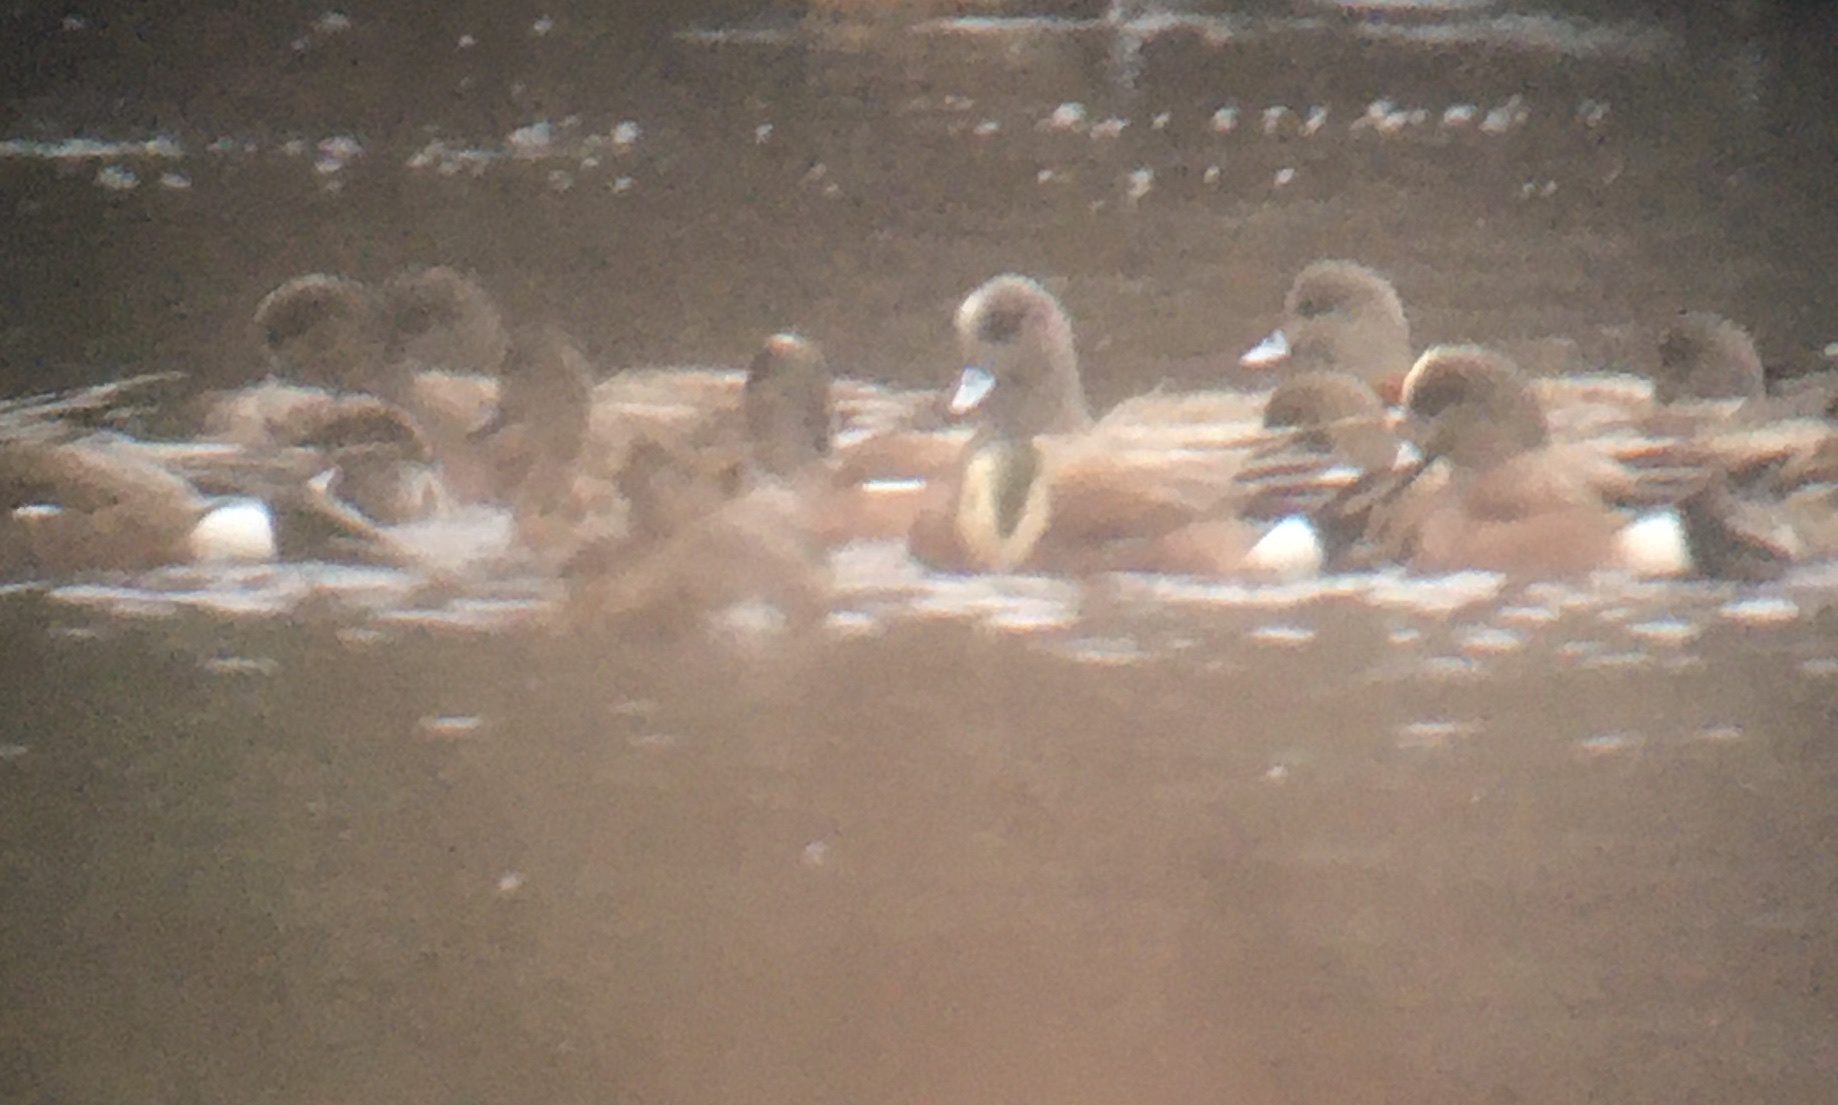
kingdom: Animalia
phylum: Chordata
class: Aves
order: Anseriformes
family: Anatidae
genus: Mareca
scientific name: Mareca americana
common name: American wigeon
